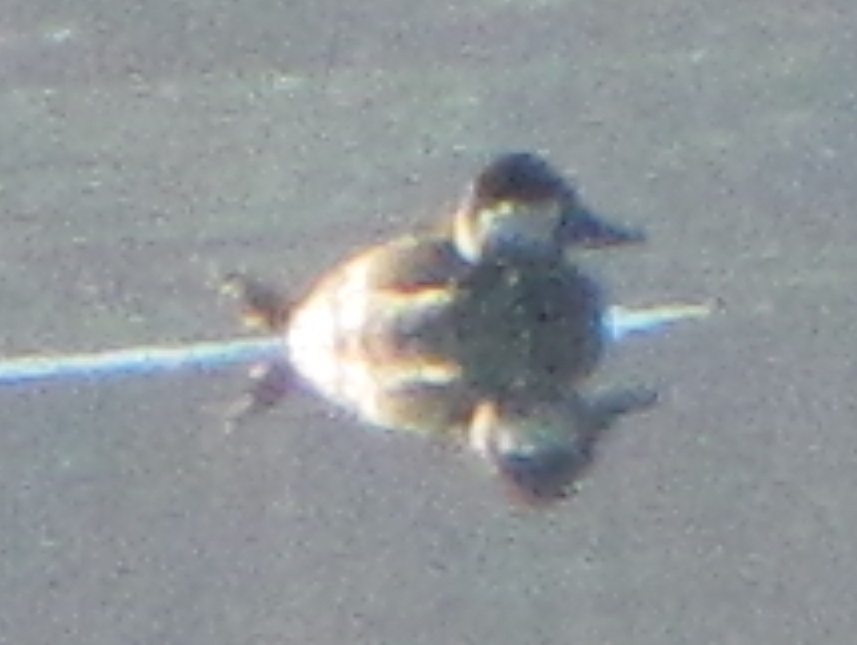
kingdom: Animalia
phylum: Chordata
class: Aves
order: Anseriformes
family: Anatidae
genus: Oxyura
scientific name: Oxyura jamaicensis
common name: Ruddy duck
